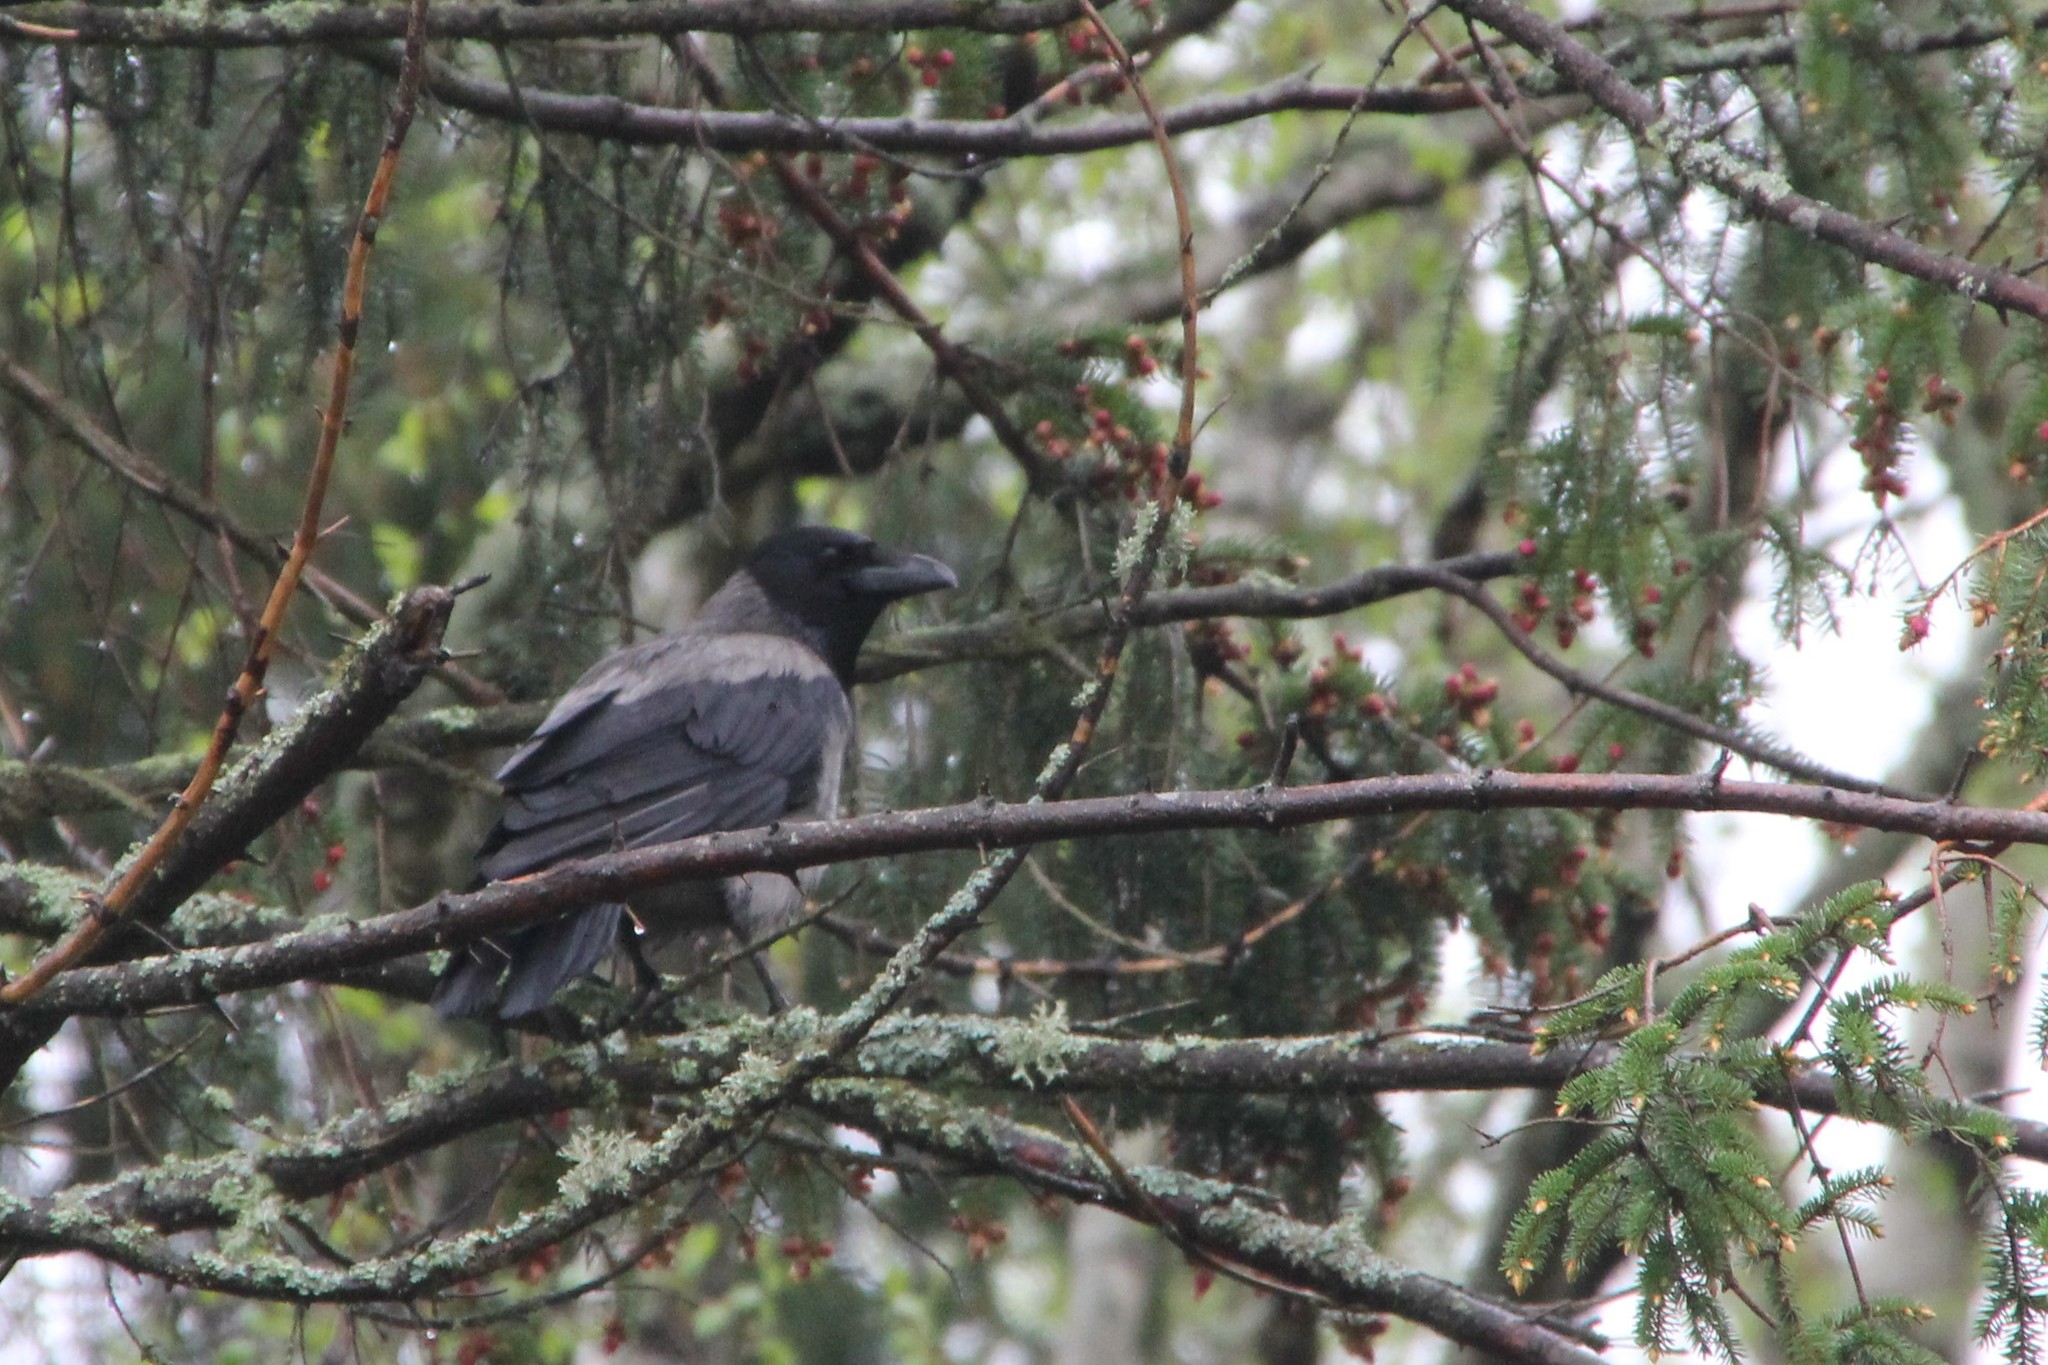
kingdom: Animalia
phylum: Chordata
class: Aves
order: Passeriformes
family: Corvidae
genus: Corvus
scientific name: Corvus cornix
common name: Hooded crow
